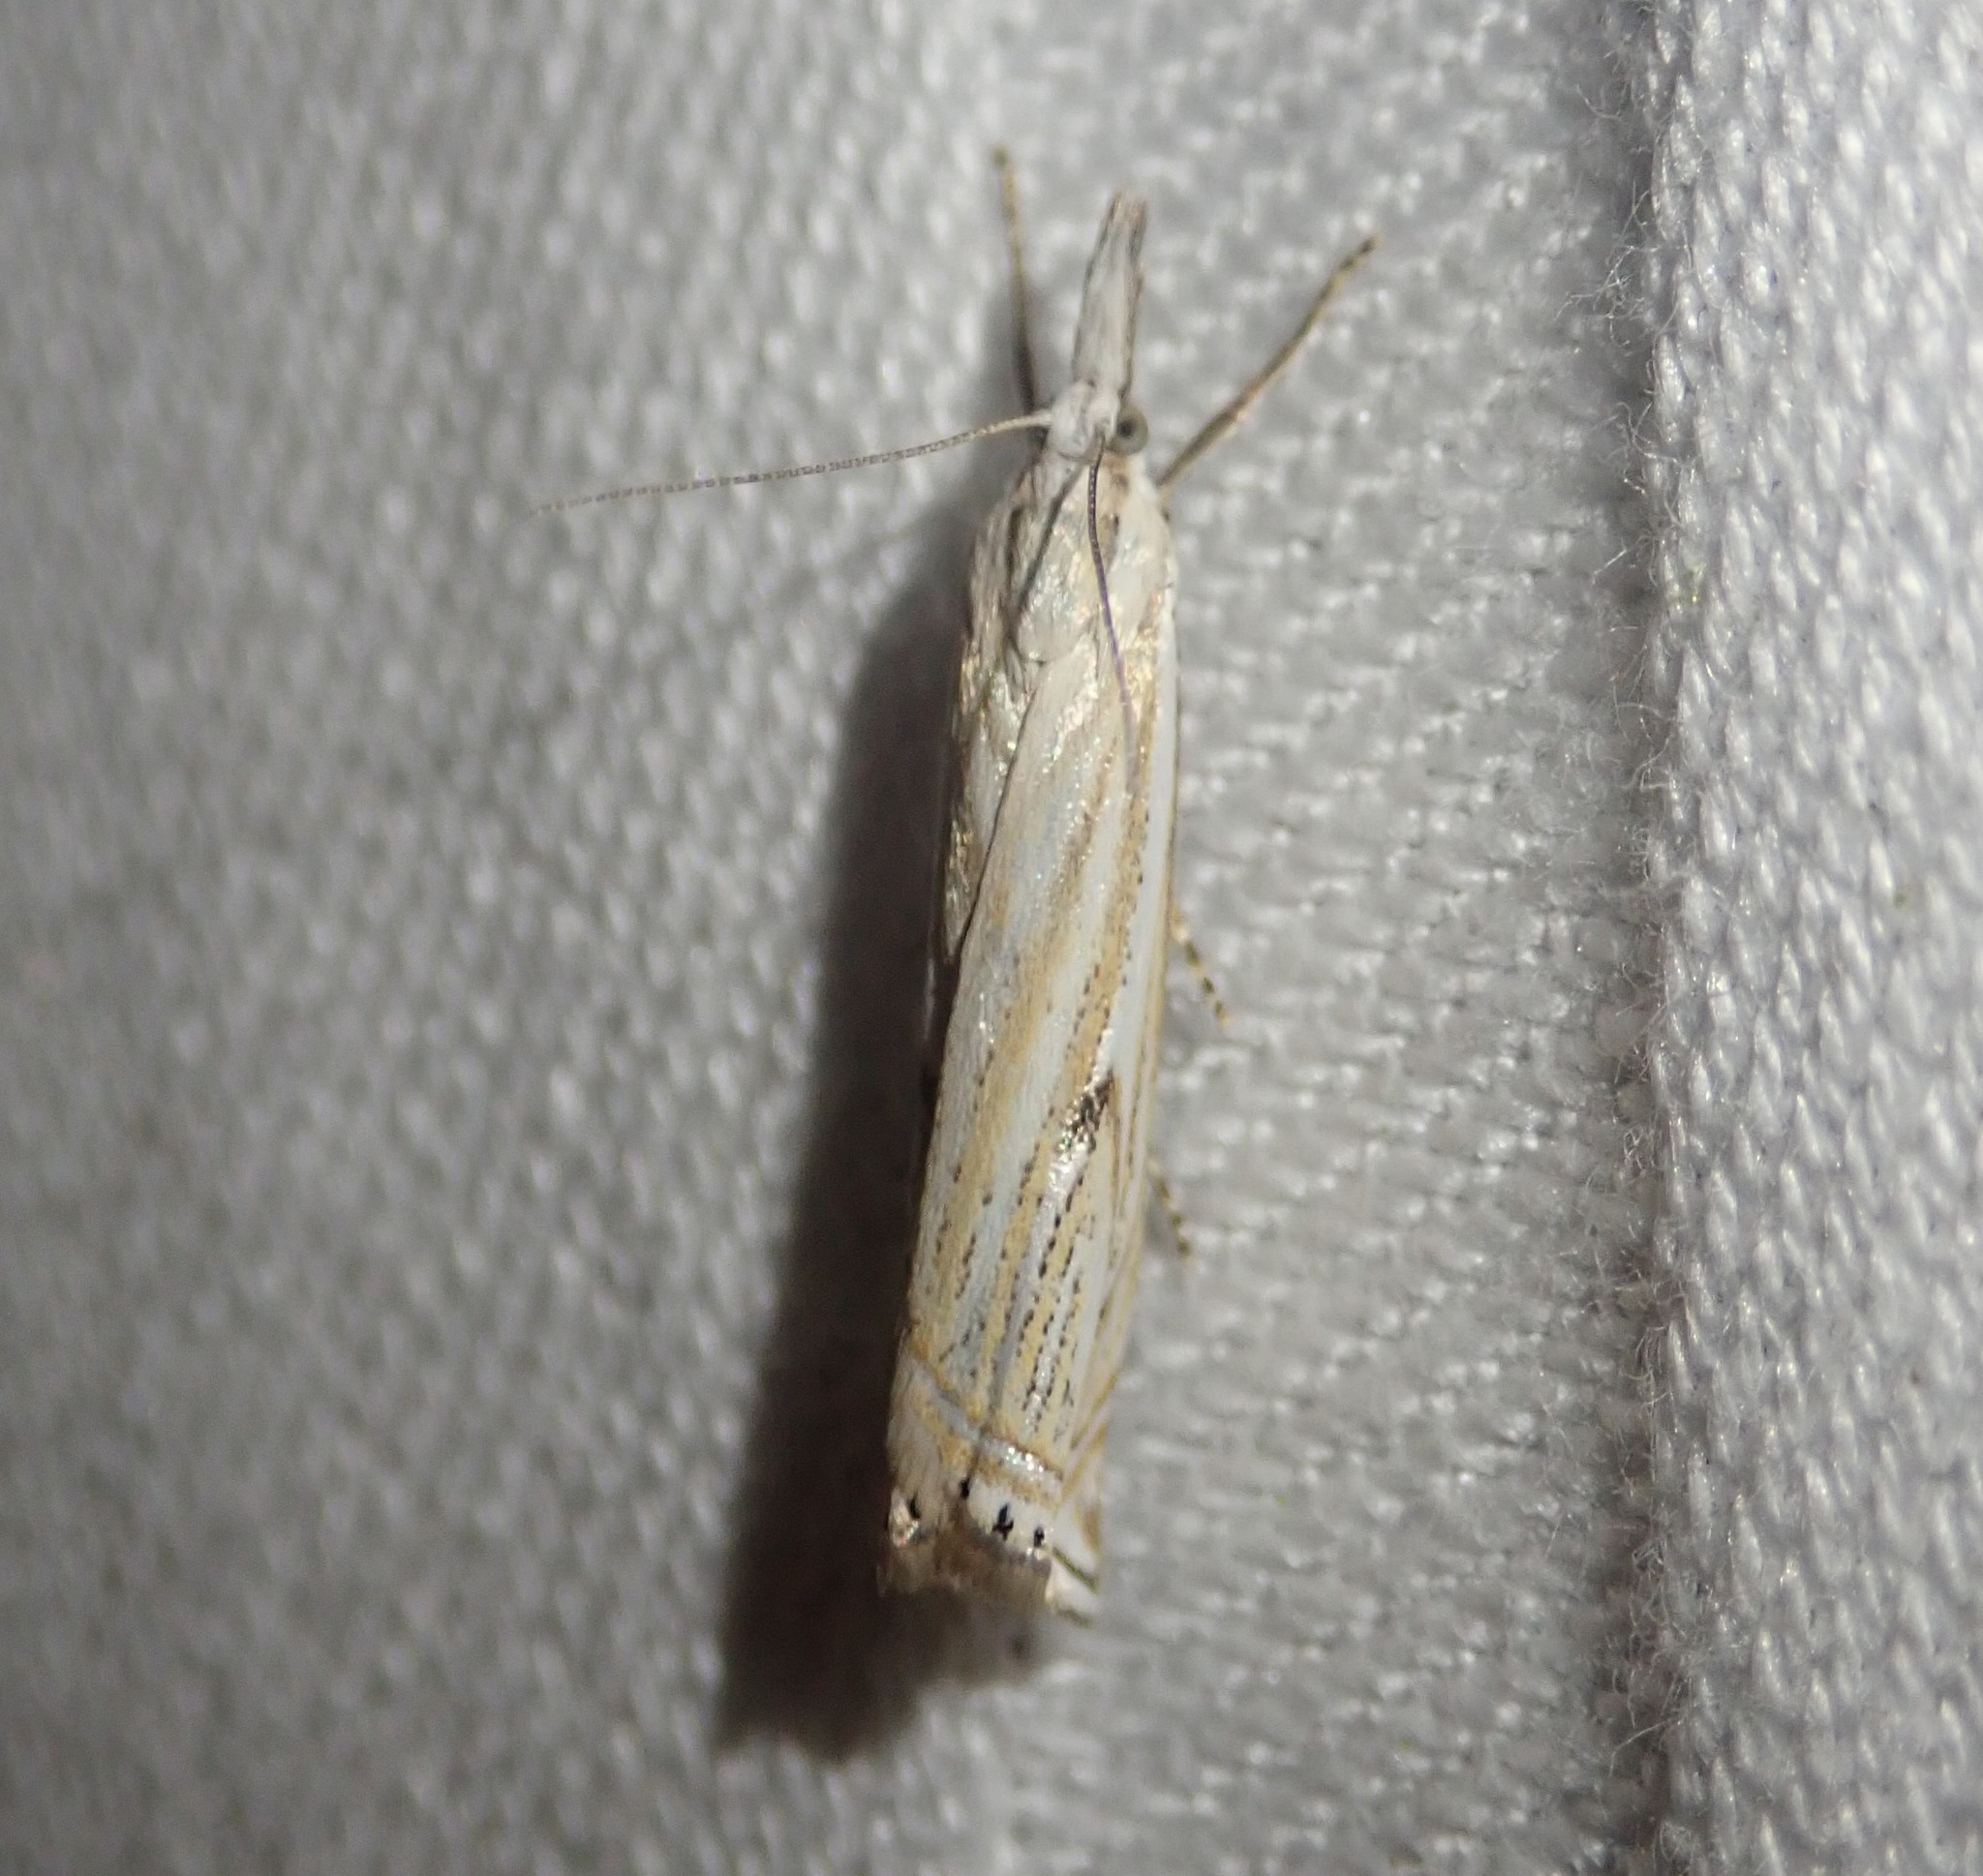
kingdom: Animalia
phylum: Arthropoda
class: Insecta
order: Lepidoptera
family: Crambidae
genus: Crambus
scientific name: Crambus nemorella
